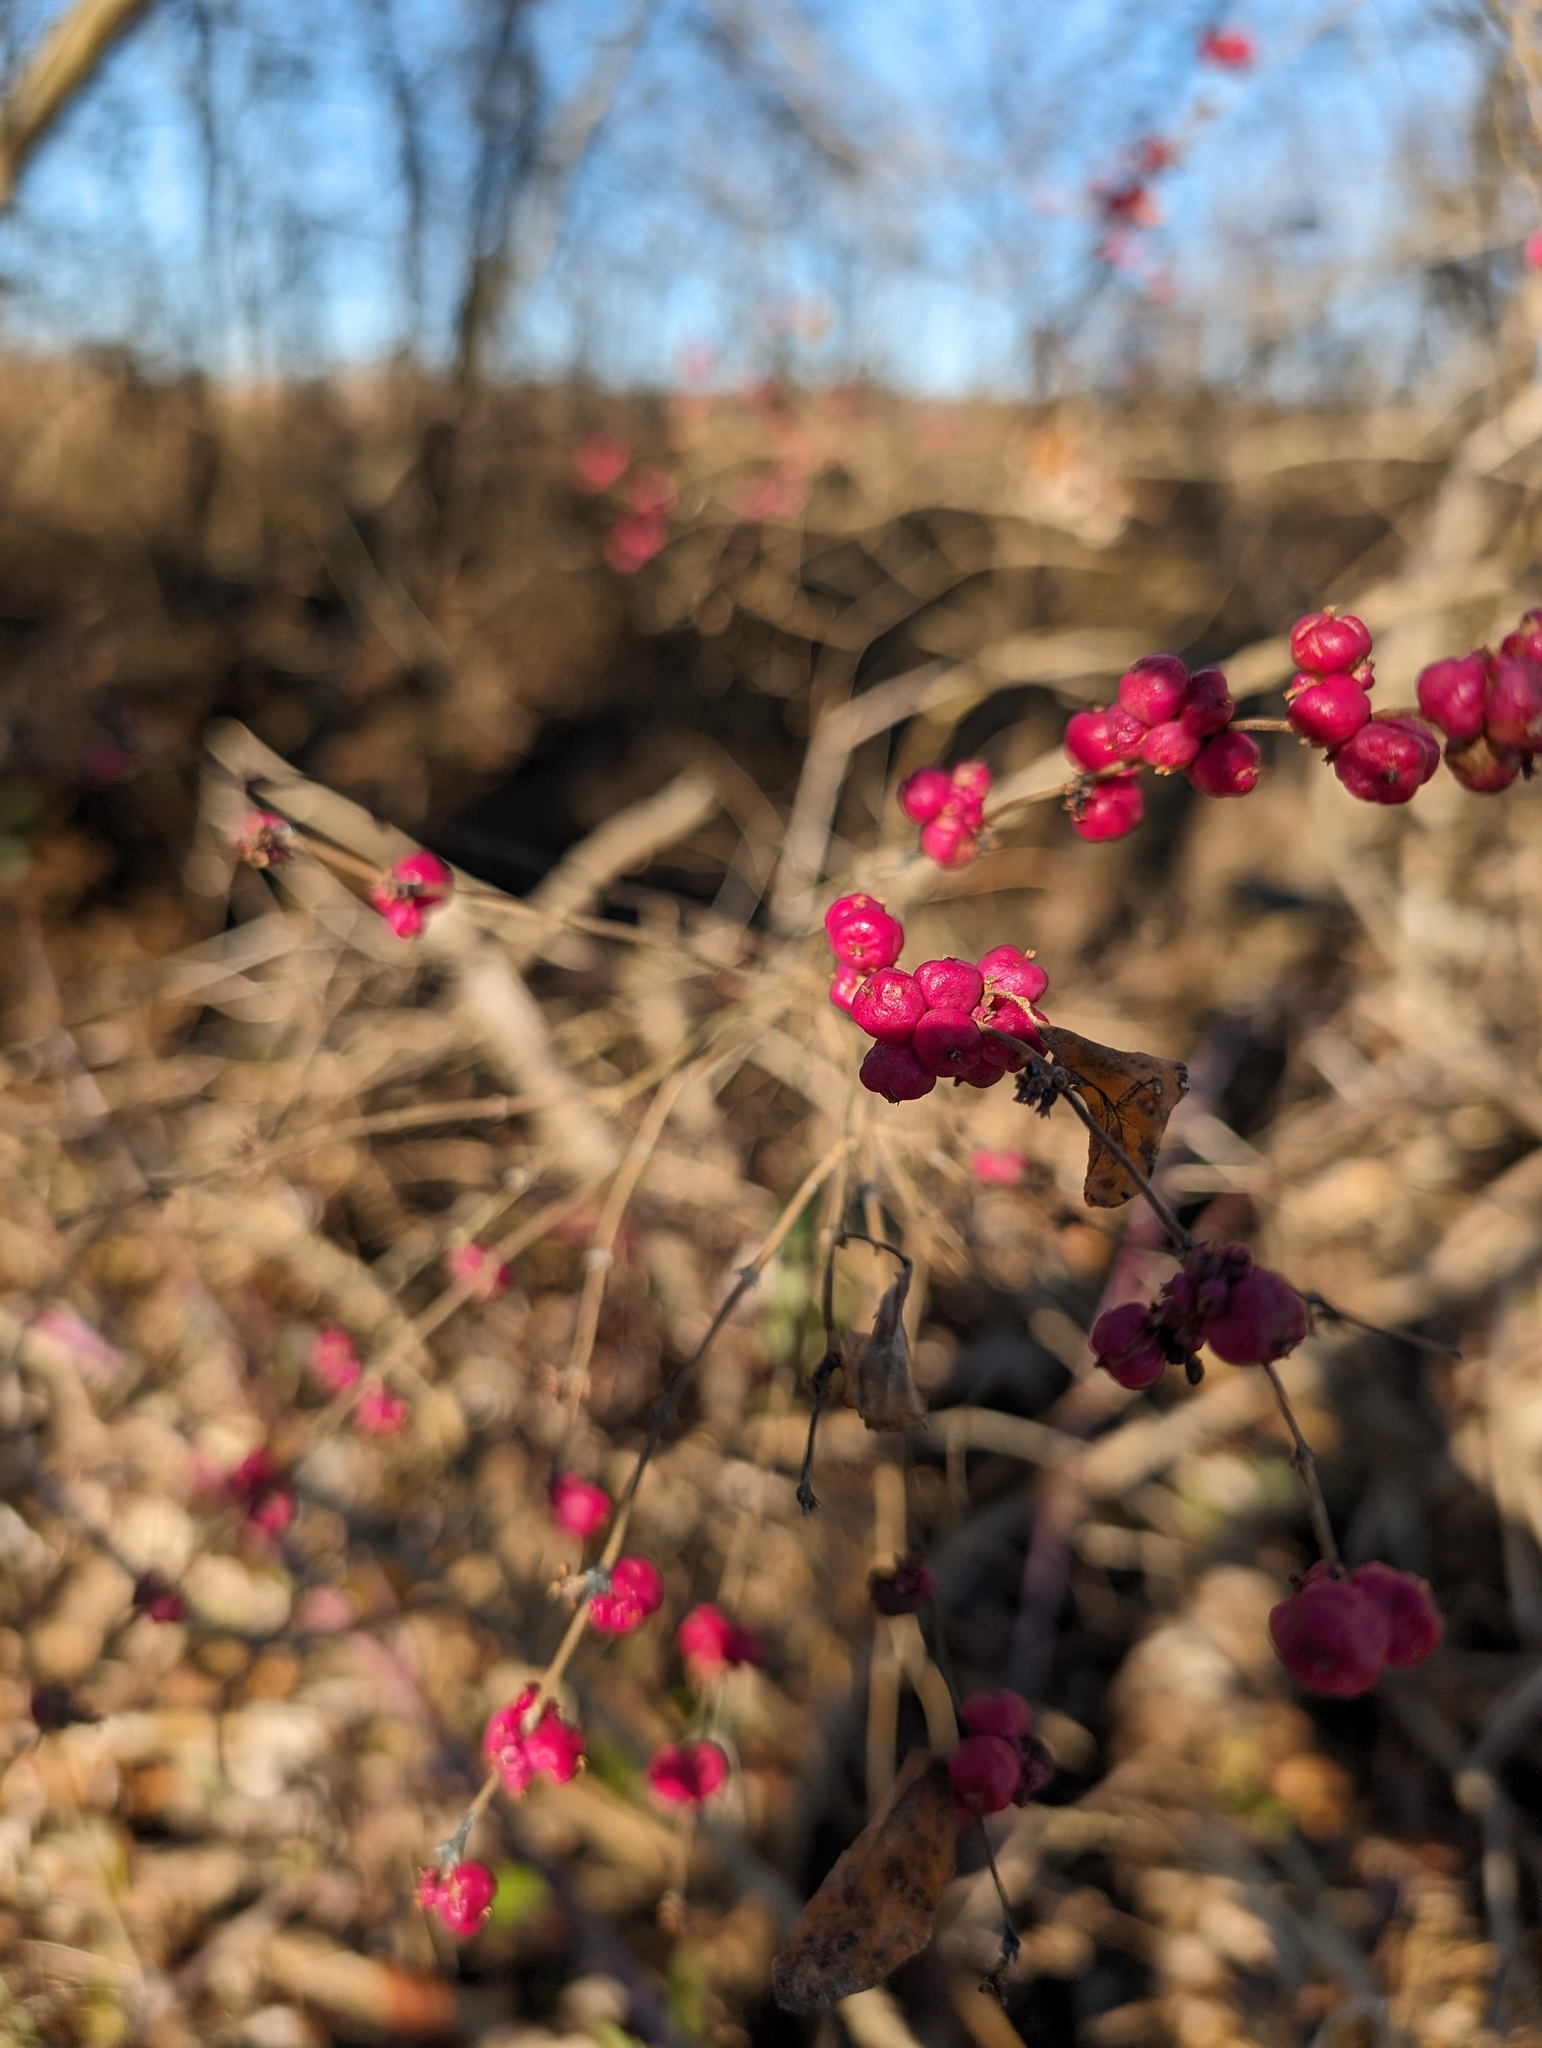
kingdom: Plantae
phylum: Tracheophyta
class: Magnoliopsida
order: Dipsacales
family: Caprifoliaceae
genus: Symphoricarpos
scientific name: Symphoricarpos orbiculatus
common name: Coralberry
